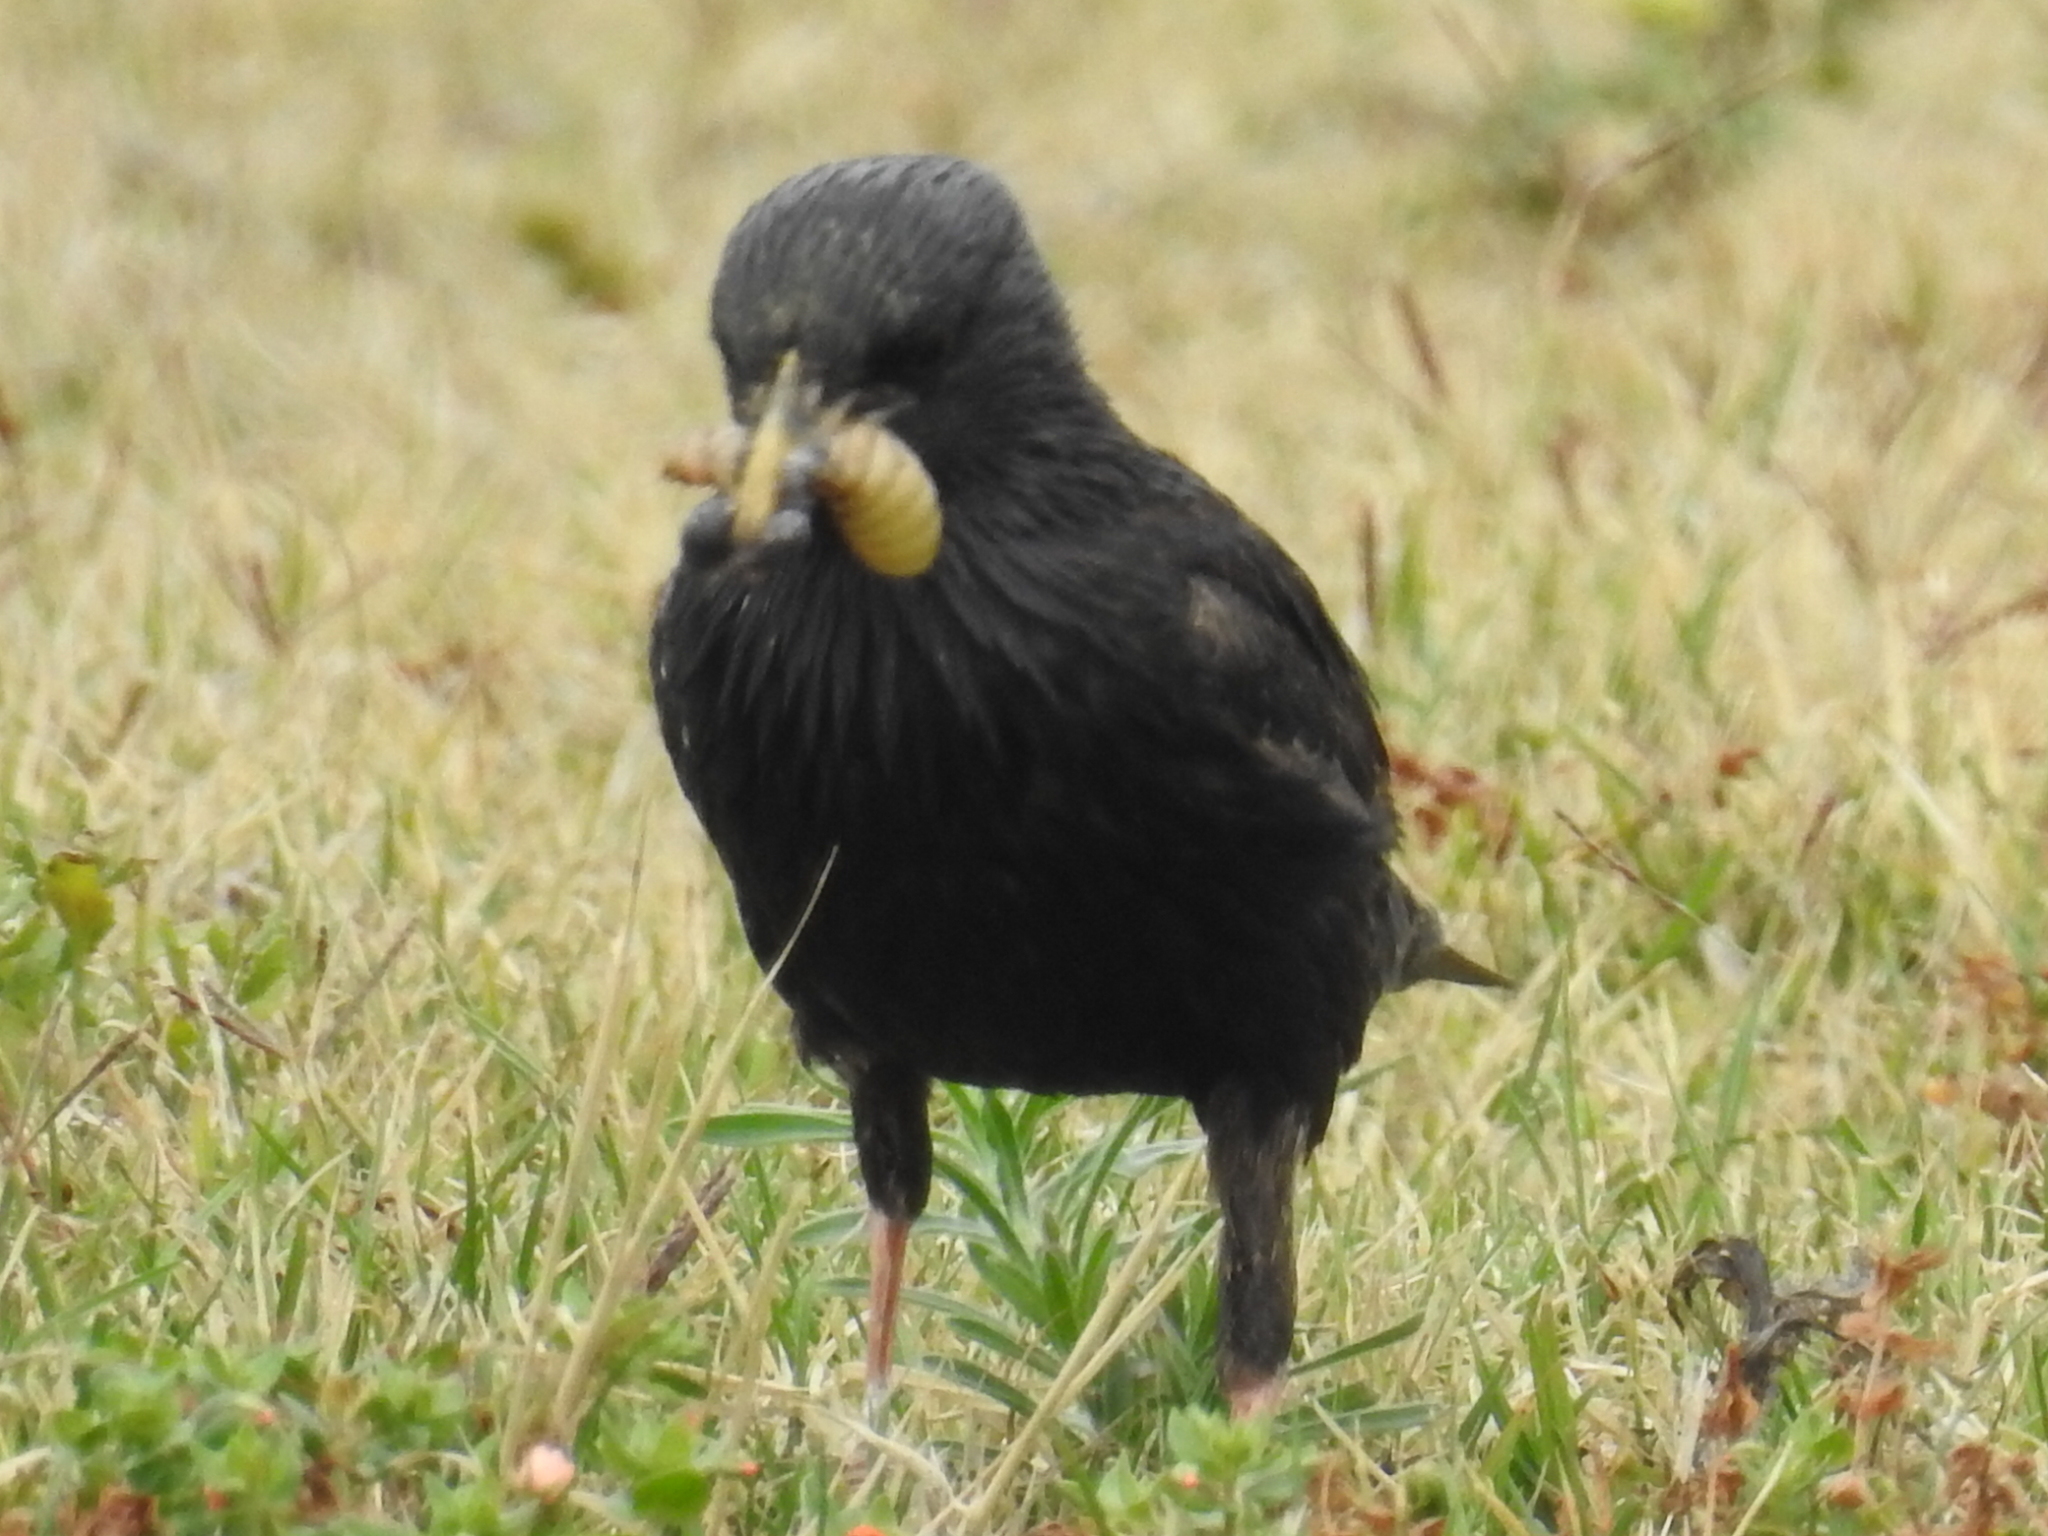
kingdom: Animalia
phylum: Chordata
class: Aves
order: Passeriformes
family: Sturnidae
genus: Sturnus
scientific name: Sturnus vulgaris
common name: Common starling
